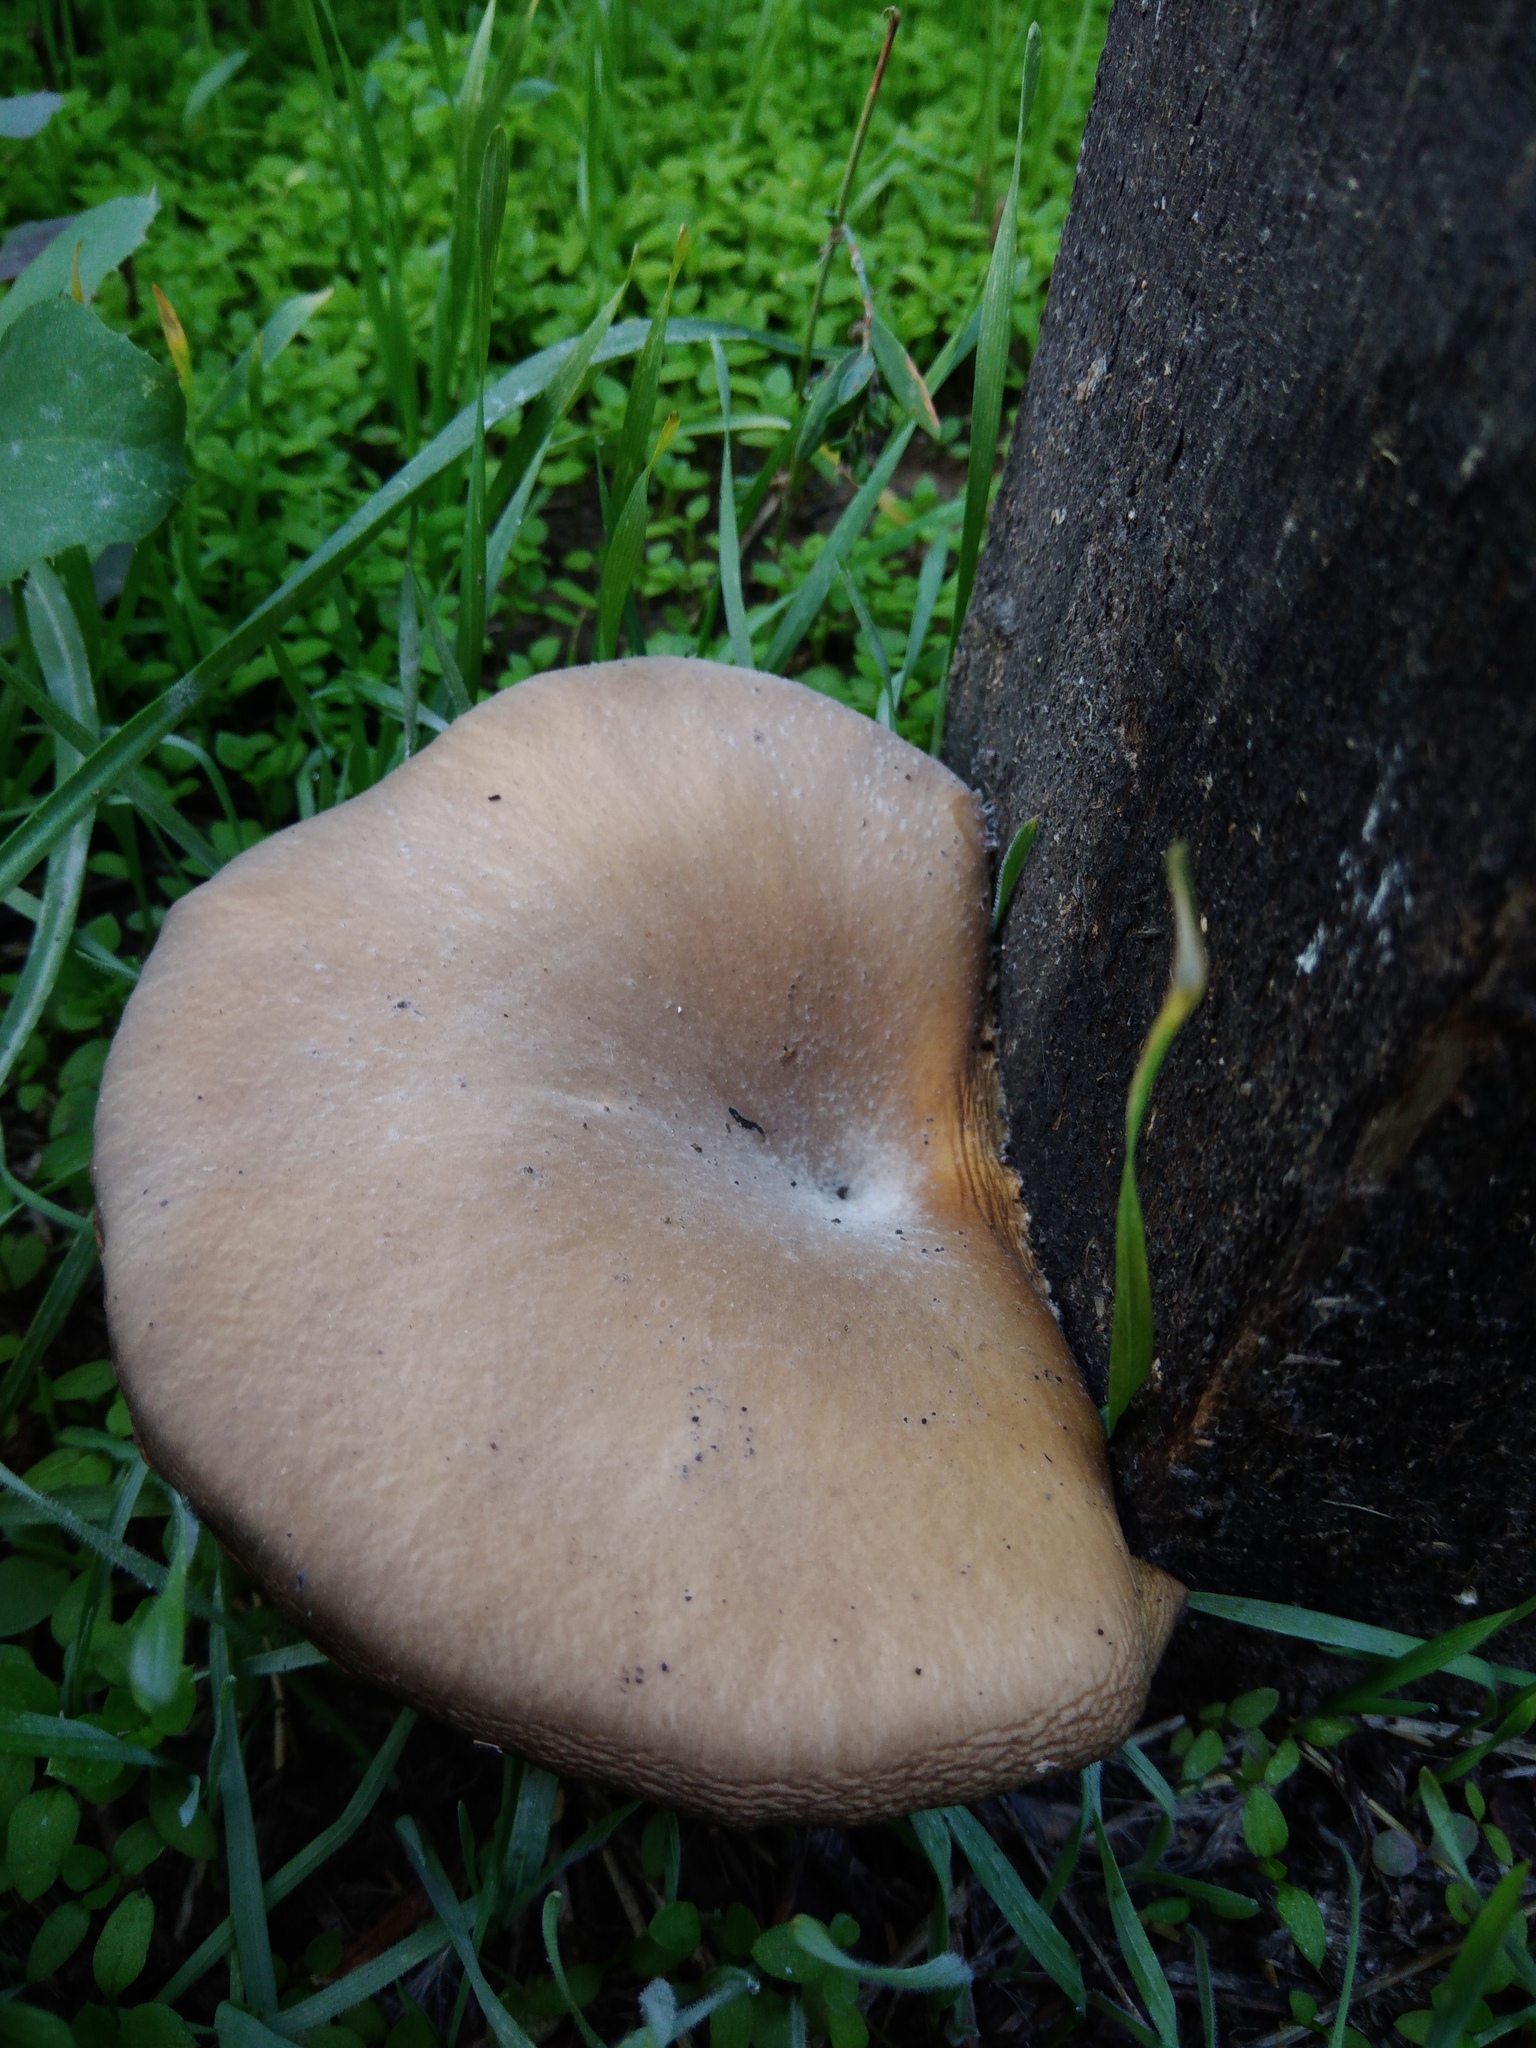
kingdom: Fungi
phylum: Basidiomycota
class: Agaricomycetes
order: Agaricales
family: Pleurotaceae
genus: Pleurotus
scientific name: Pleurotus ostreatus
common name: Oyster mushroom
